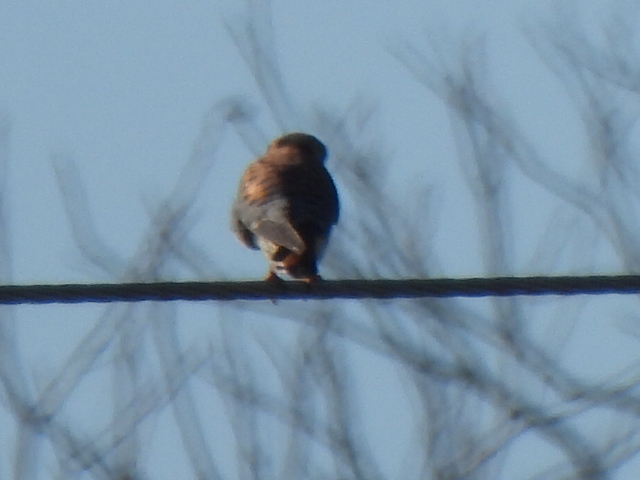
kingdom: Animalia
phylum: Chordata
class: Aves
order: Falconiformes
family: Falconidae
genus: Falco
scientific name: Falco sparverius
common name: American kestrel
